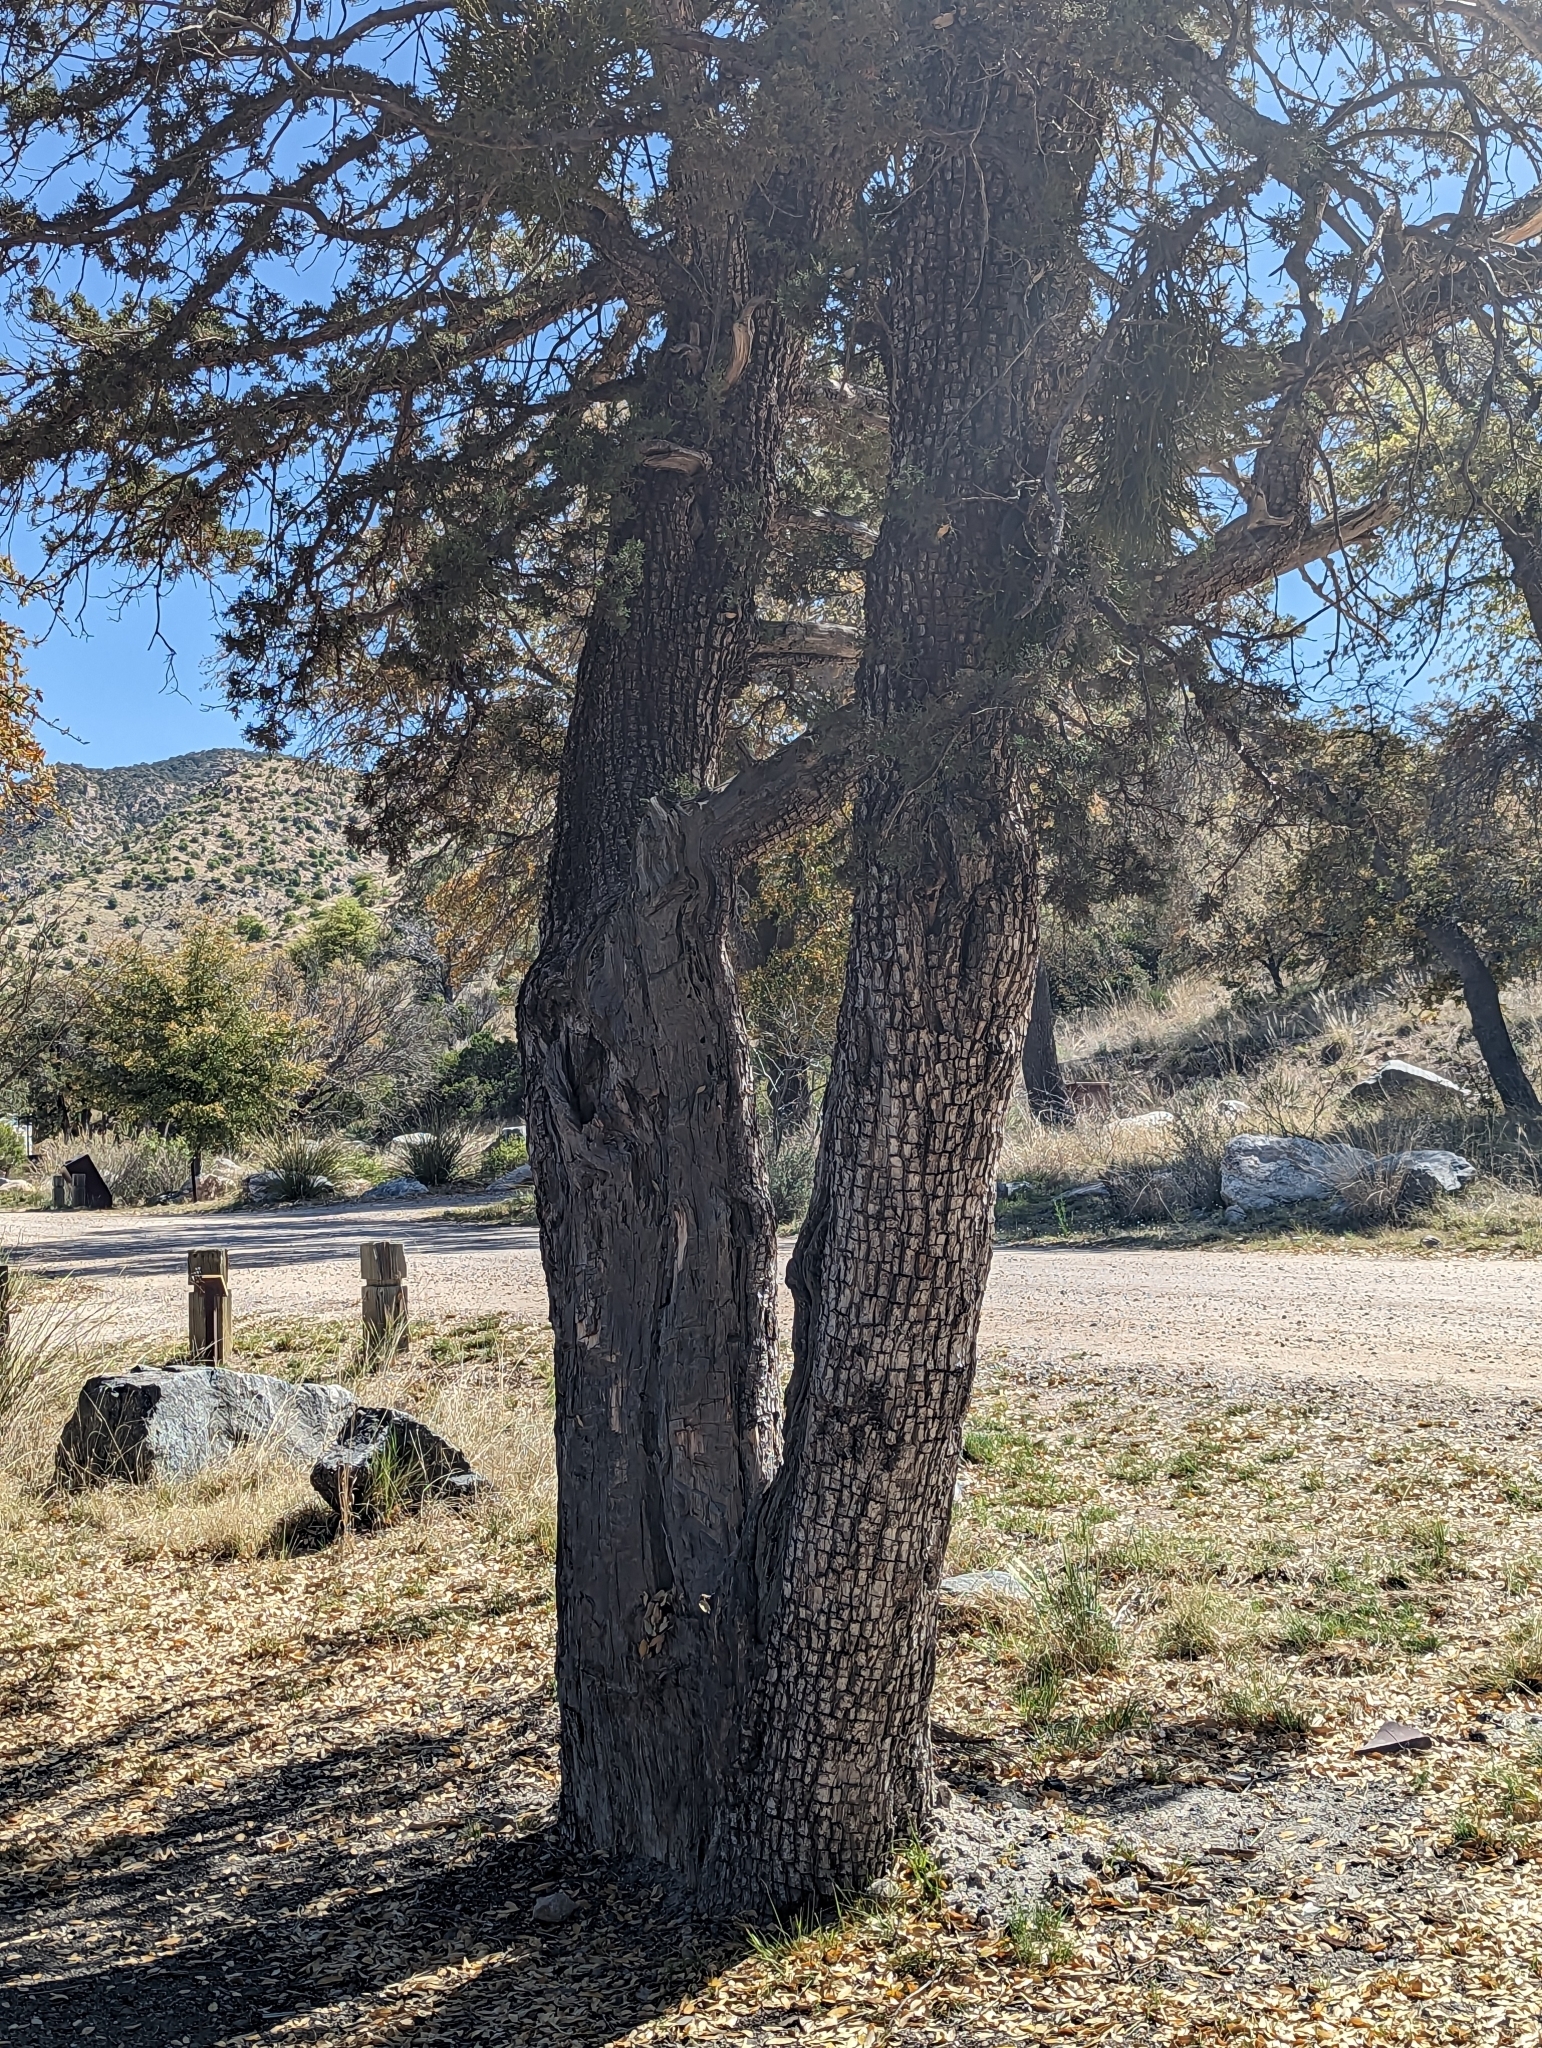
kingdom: Plantae
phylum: Tracheophyta
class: Pinopsida
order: Pinales
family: Cupressaceae
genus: Juniperus
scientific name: Juniperus deppeana
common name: Alligator juniper
